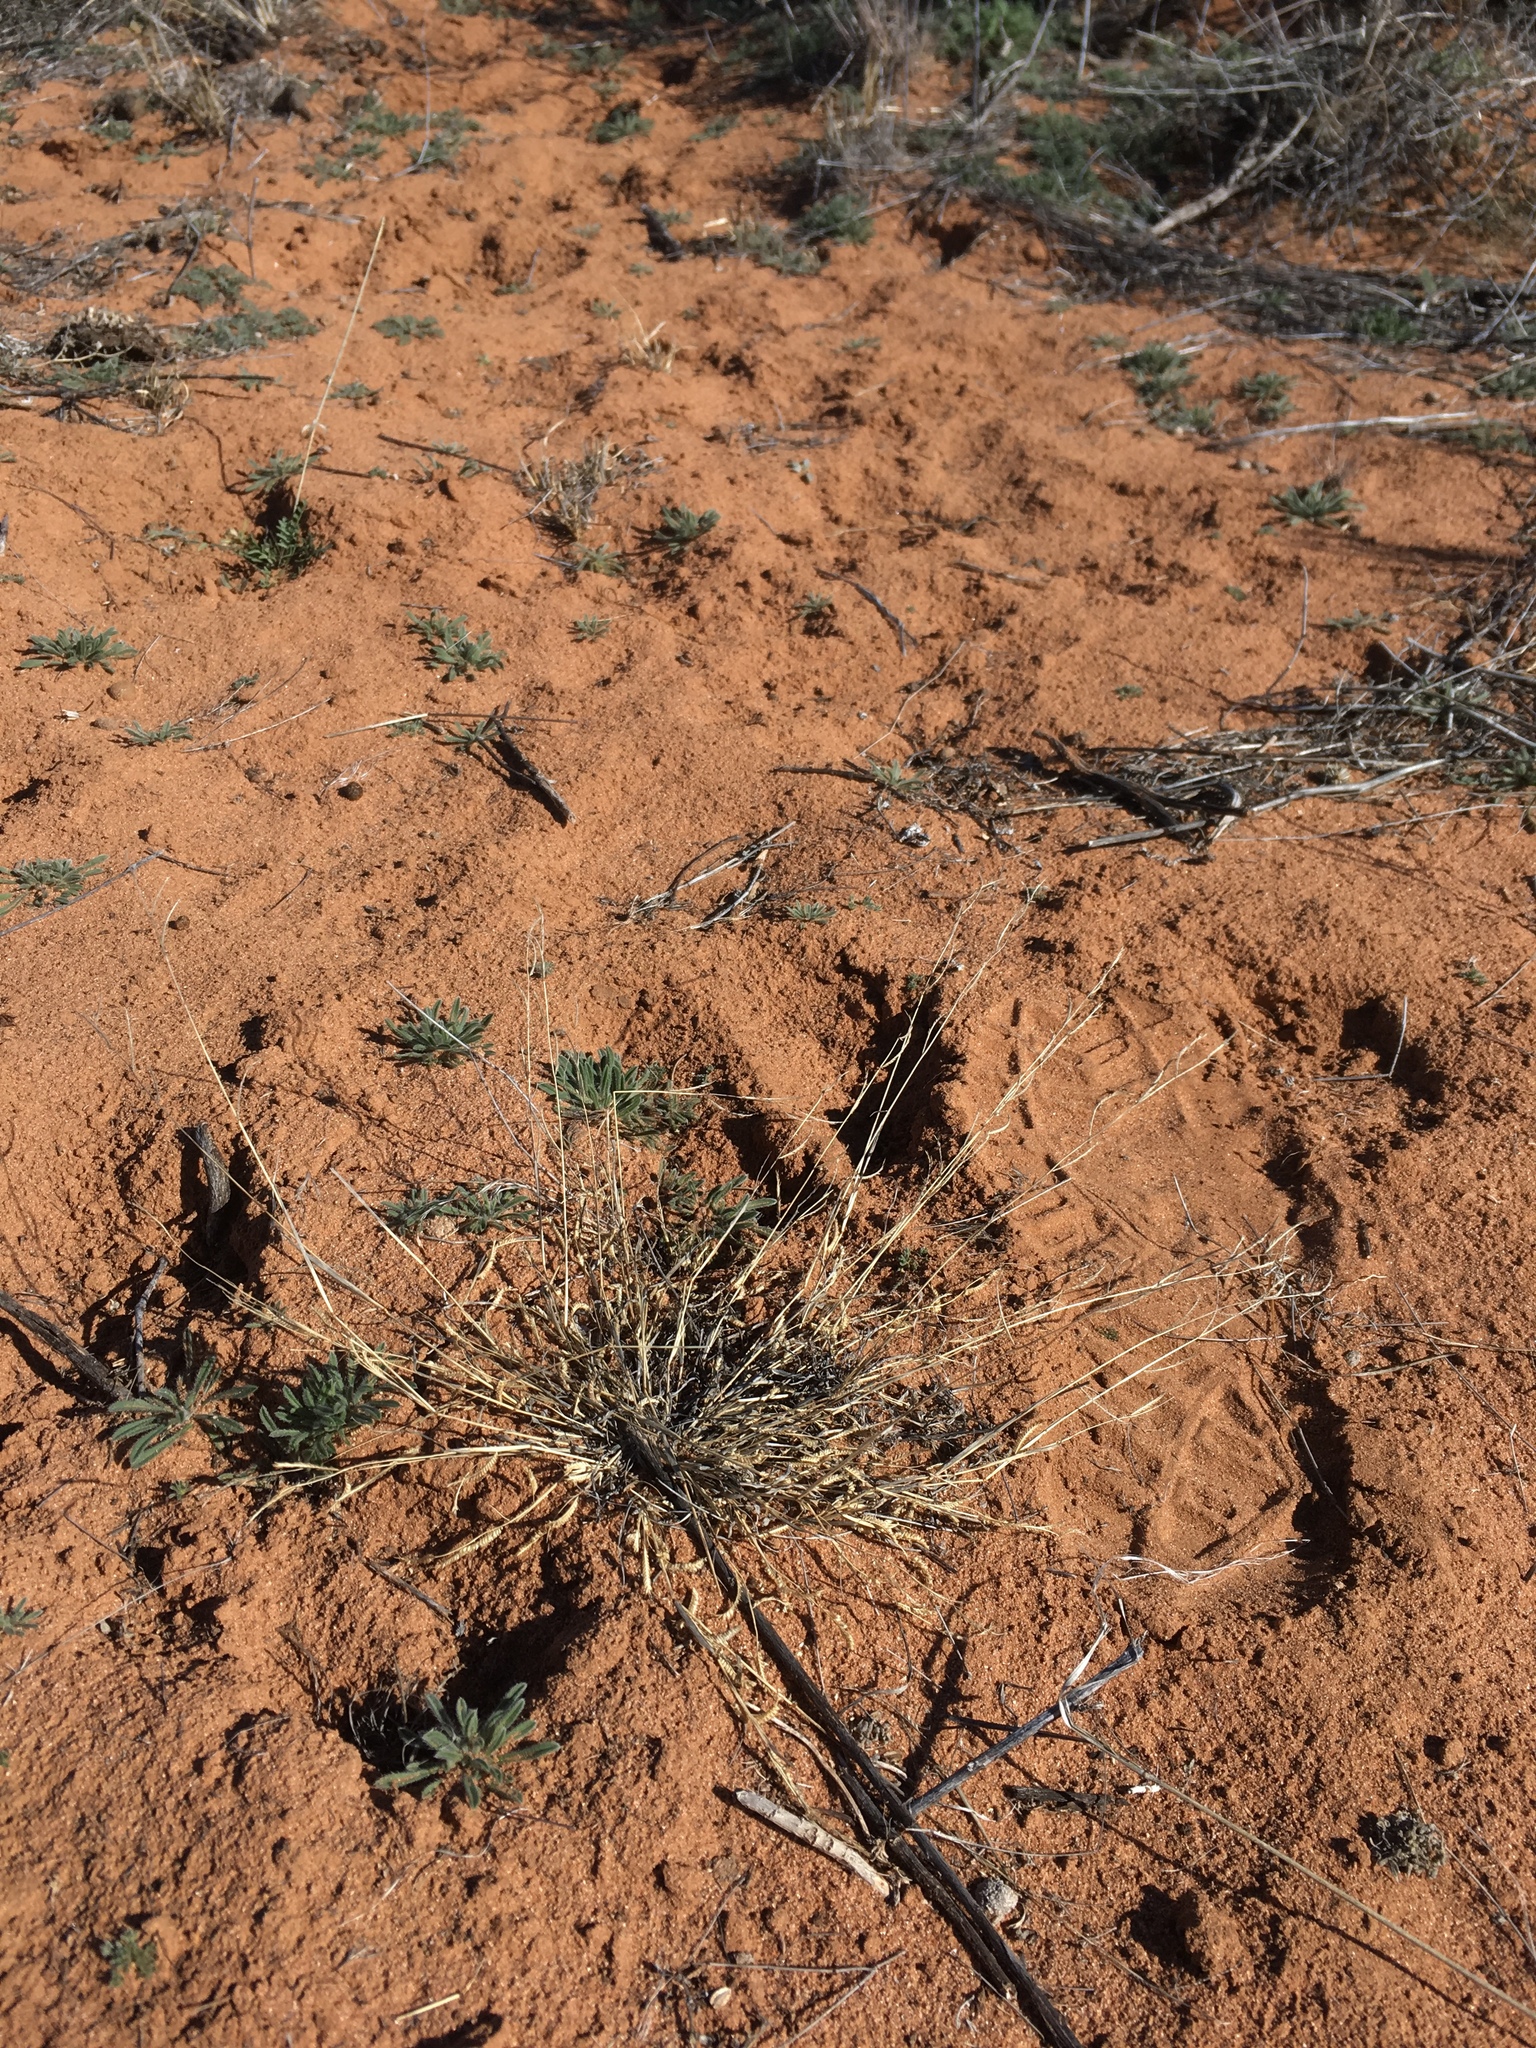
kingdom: Plantae
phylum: Tracheophyta
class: Liliopsida
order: Poales
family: Poaceae
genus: Bouteloua
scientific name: Bouteloua barbata
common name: Six-weeks grama
